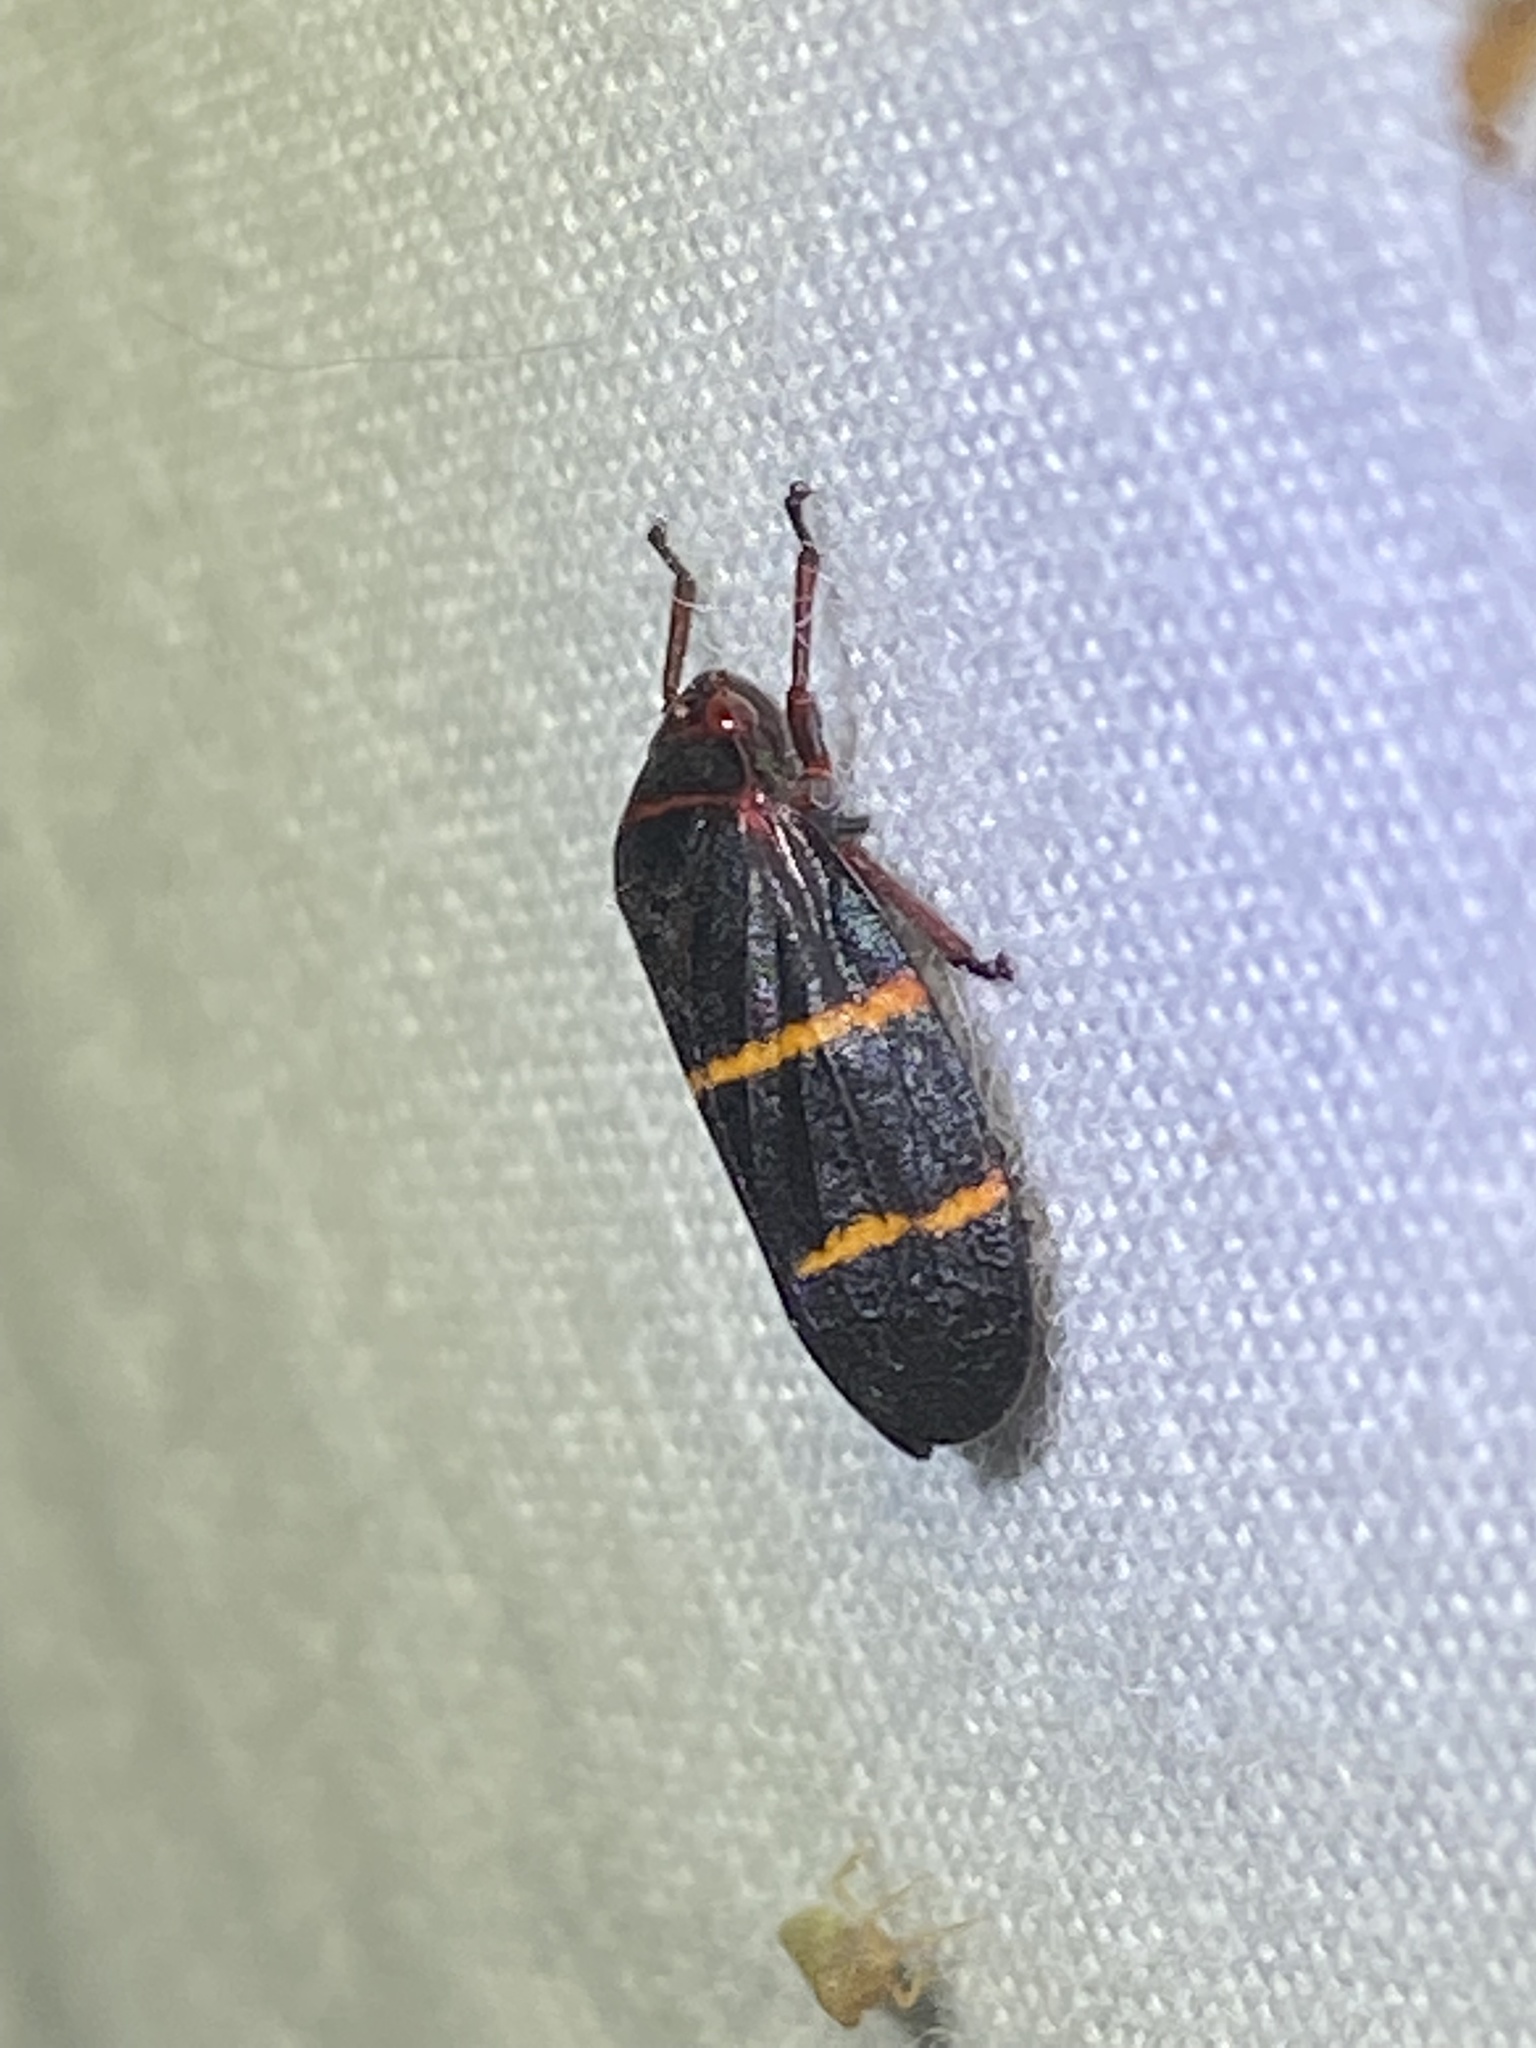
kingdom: Animalia
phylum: Arthropoda
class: Insecta
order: Hemiptera
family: Cercopidae
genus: Prosapia
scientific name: Prosapia bicincta
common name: Twolined spittlebug
